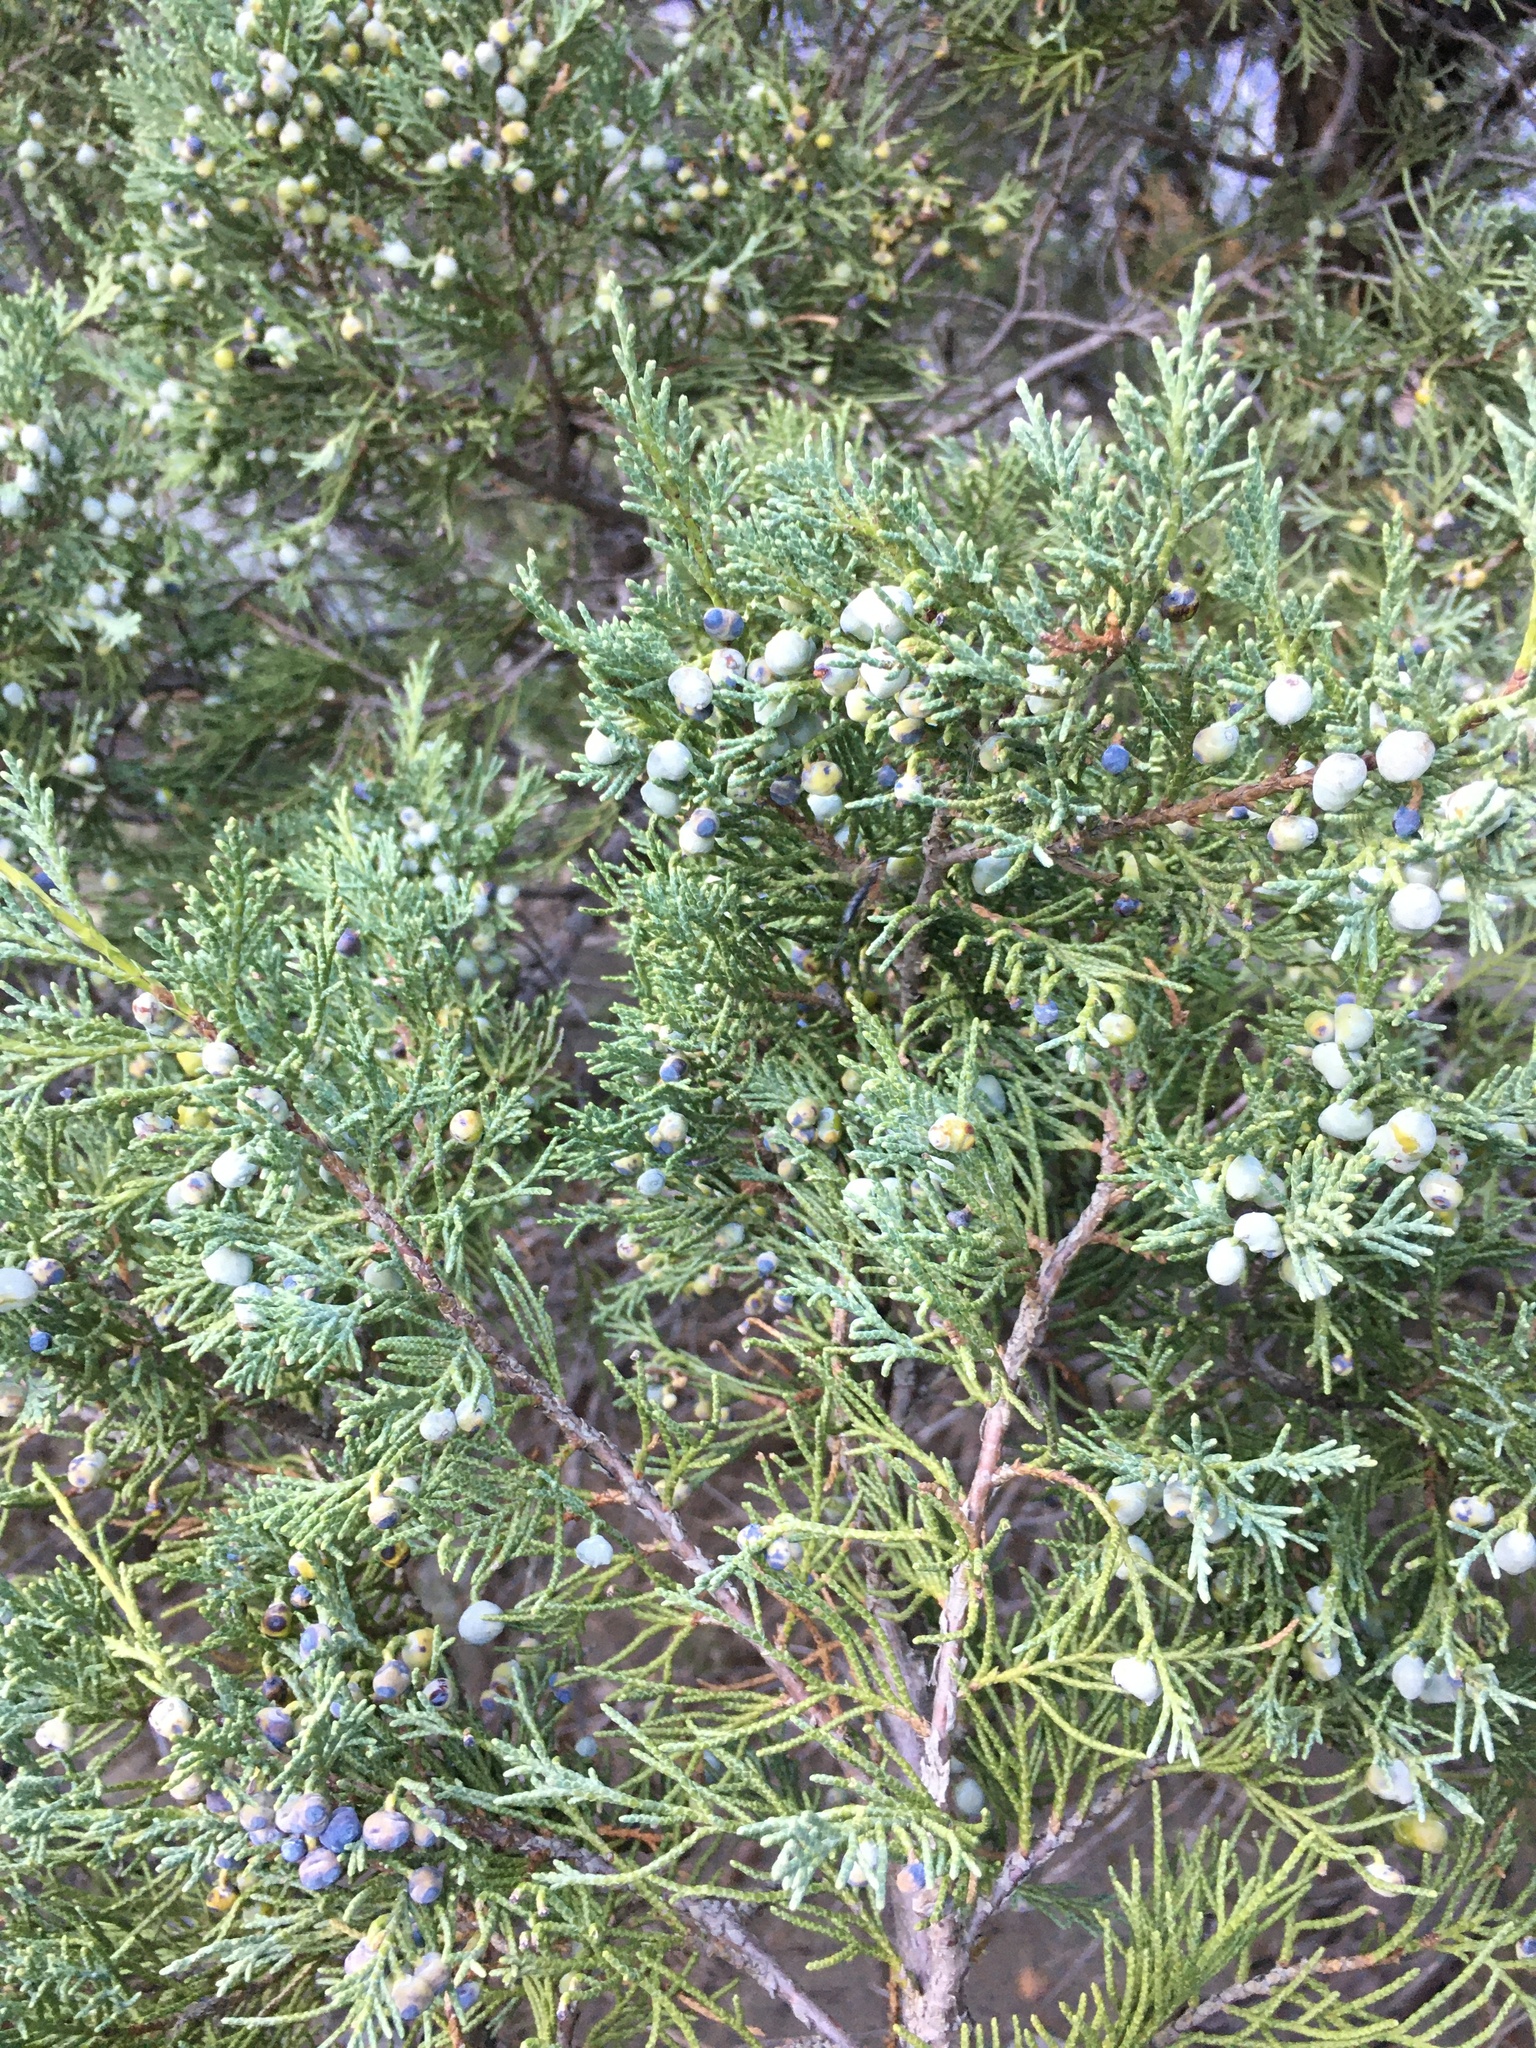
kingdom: Plantae
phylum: Tracheophyta
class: Pinopsida
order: Pinales
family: Cupressaceae
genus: Juniperus
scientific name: Juniperus scopulorum
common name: Rocky mountain juniper
